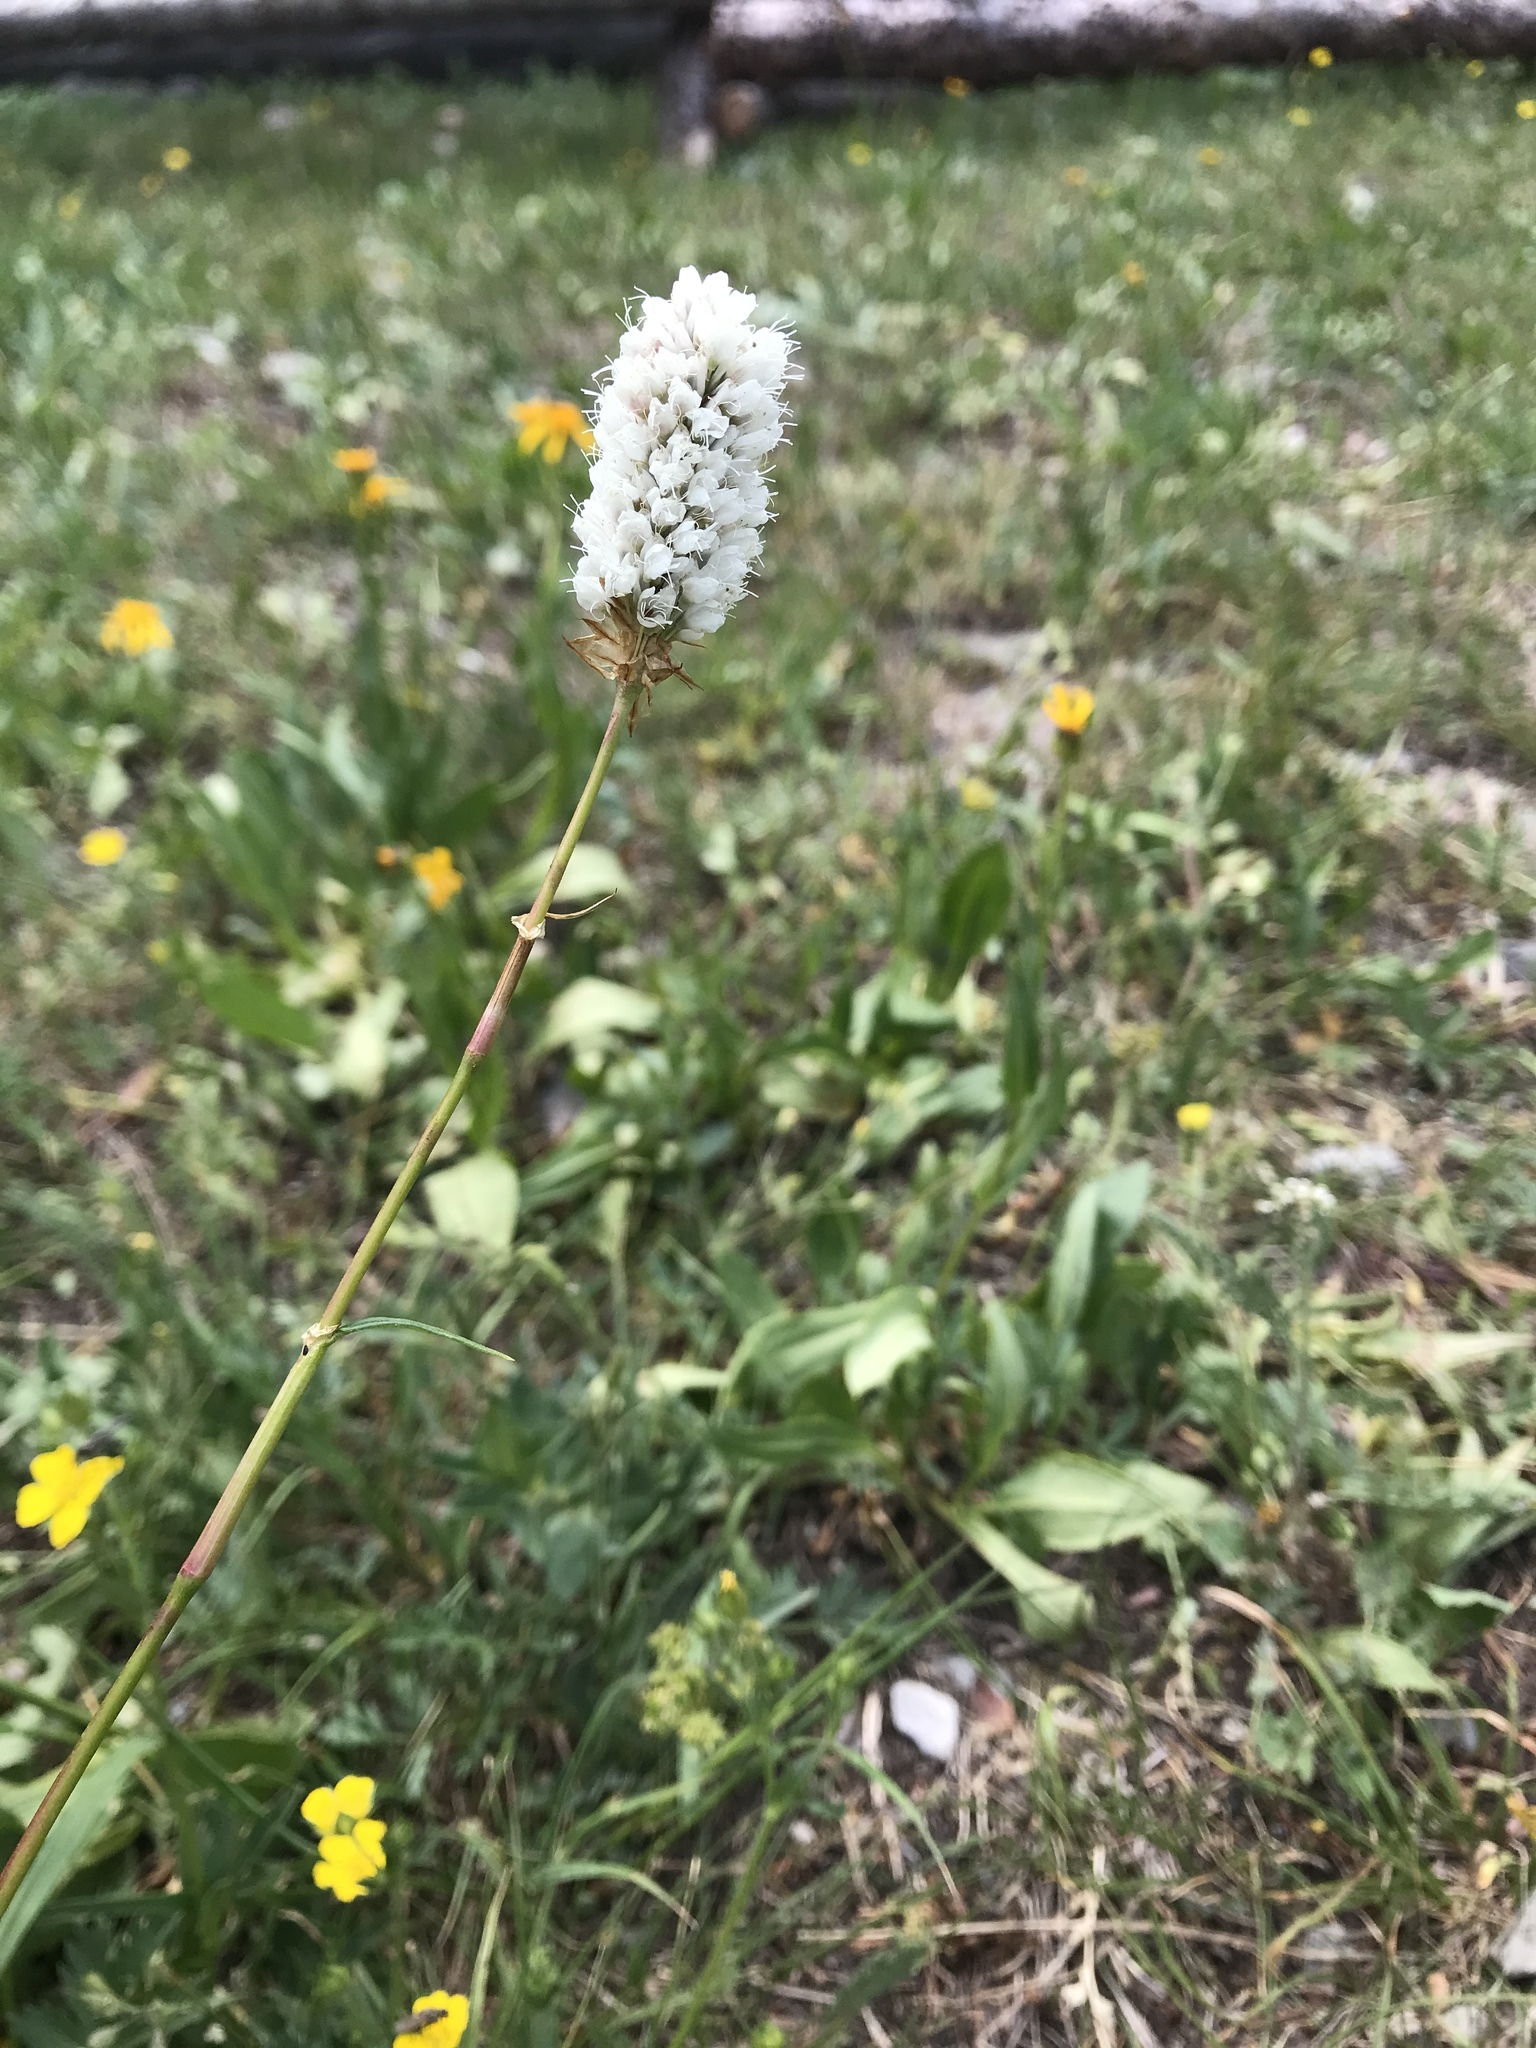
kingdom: Plantae
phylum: Tracheophyta
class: Magnoliopsida
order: Caryophyllales
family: Polygonaceae
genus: Bistorta
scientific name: Bistorta bistortoides
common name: American bistort
